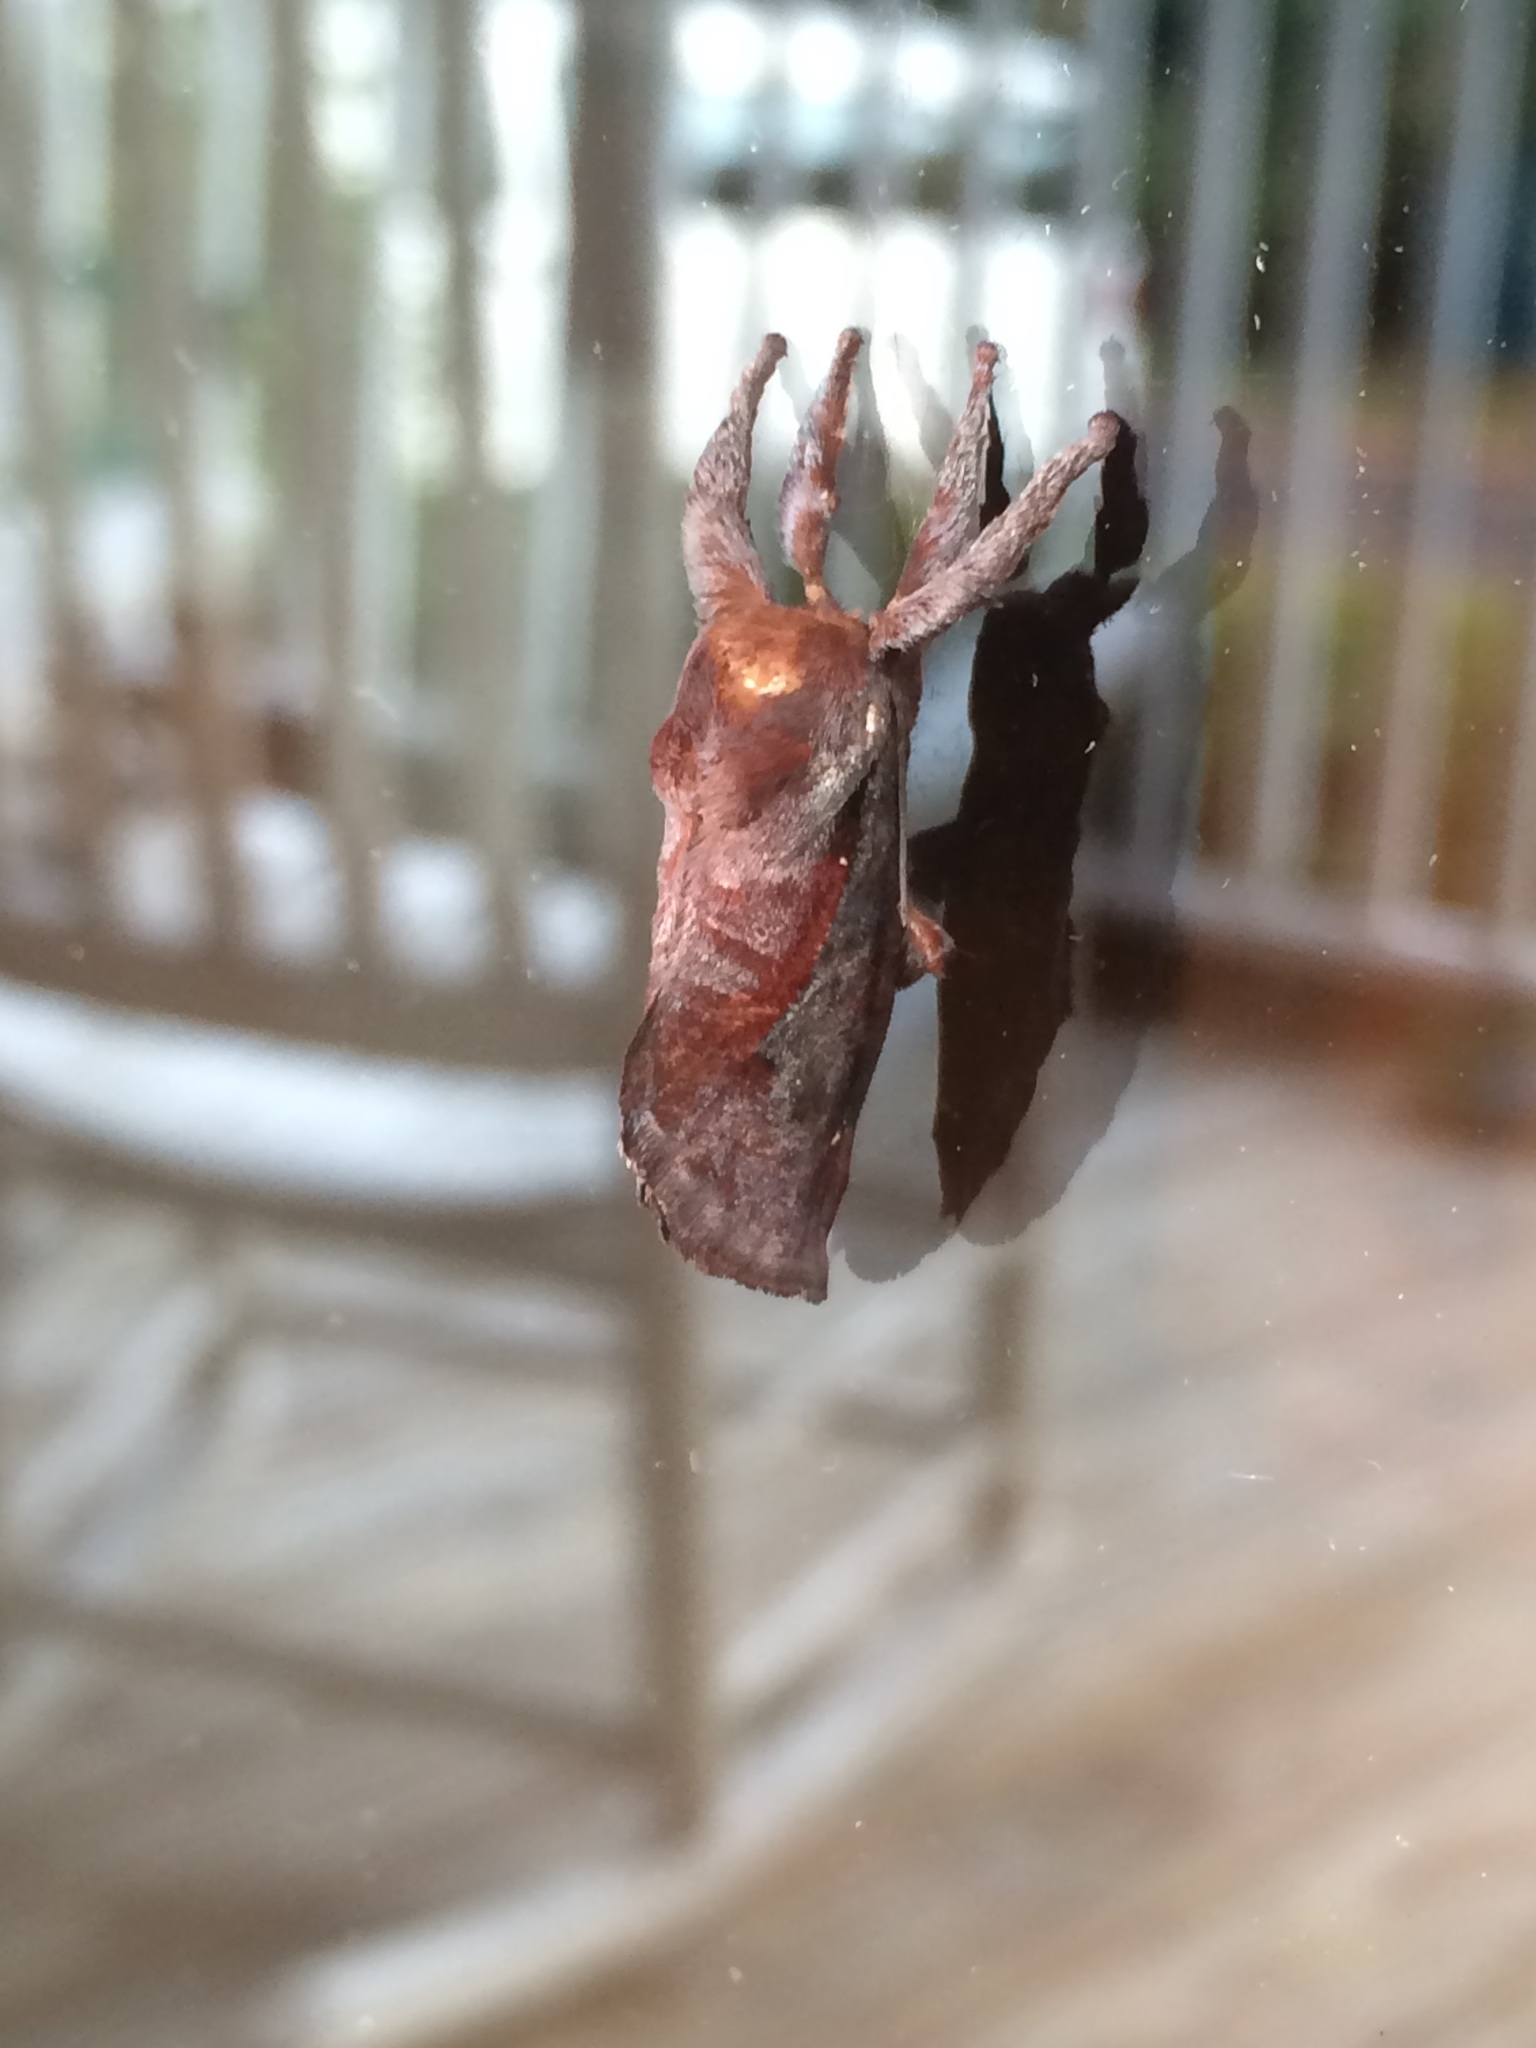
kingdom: Animalia
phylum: Arthropoda
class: Insecta
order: Lepidoptera
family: Limacodidae
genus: Acharia
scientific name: Acharia stimulea
